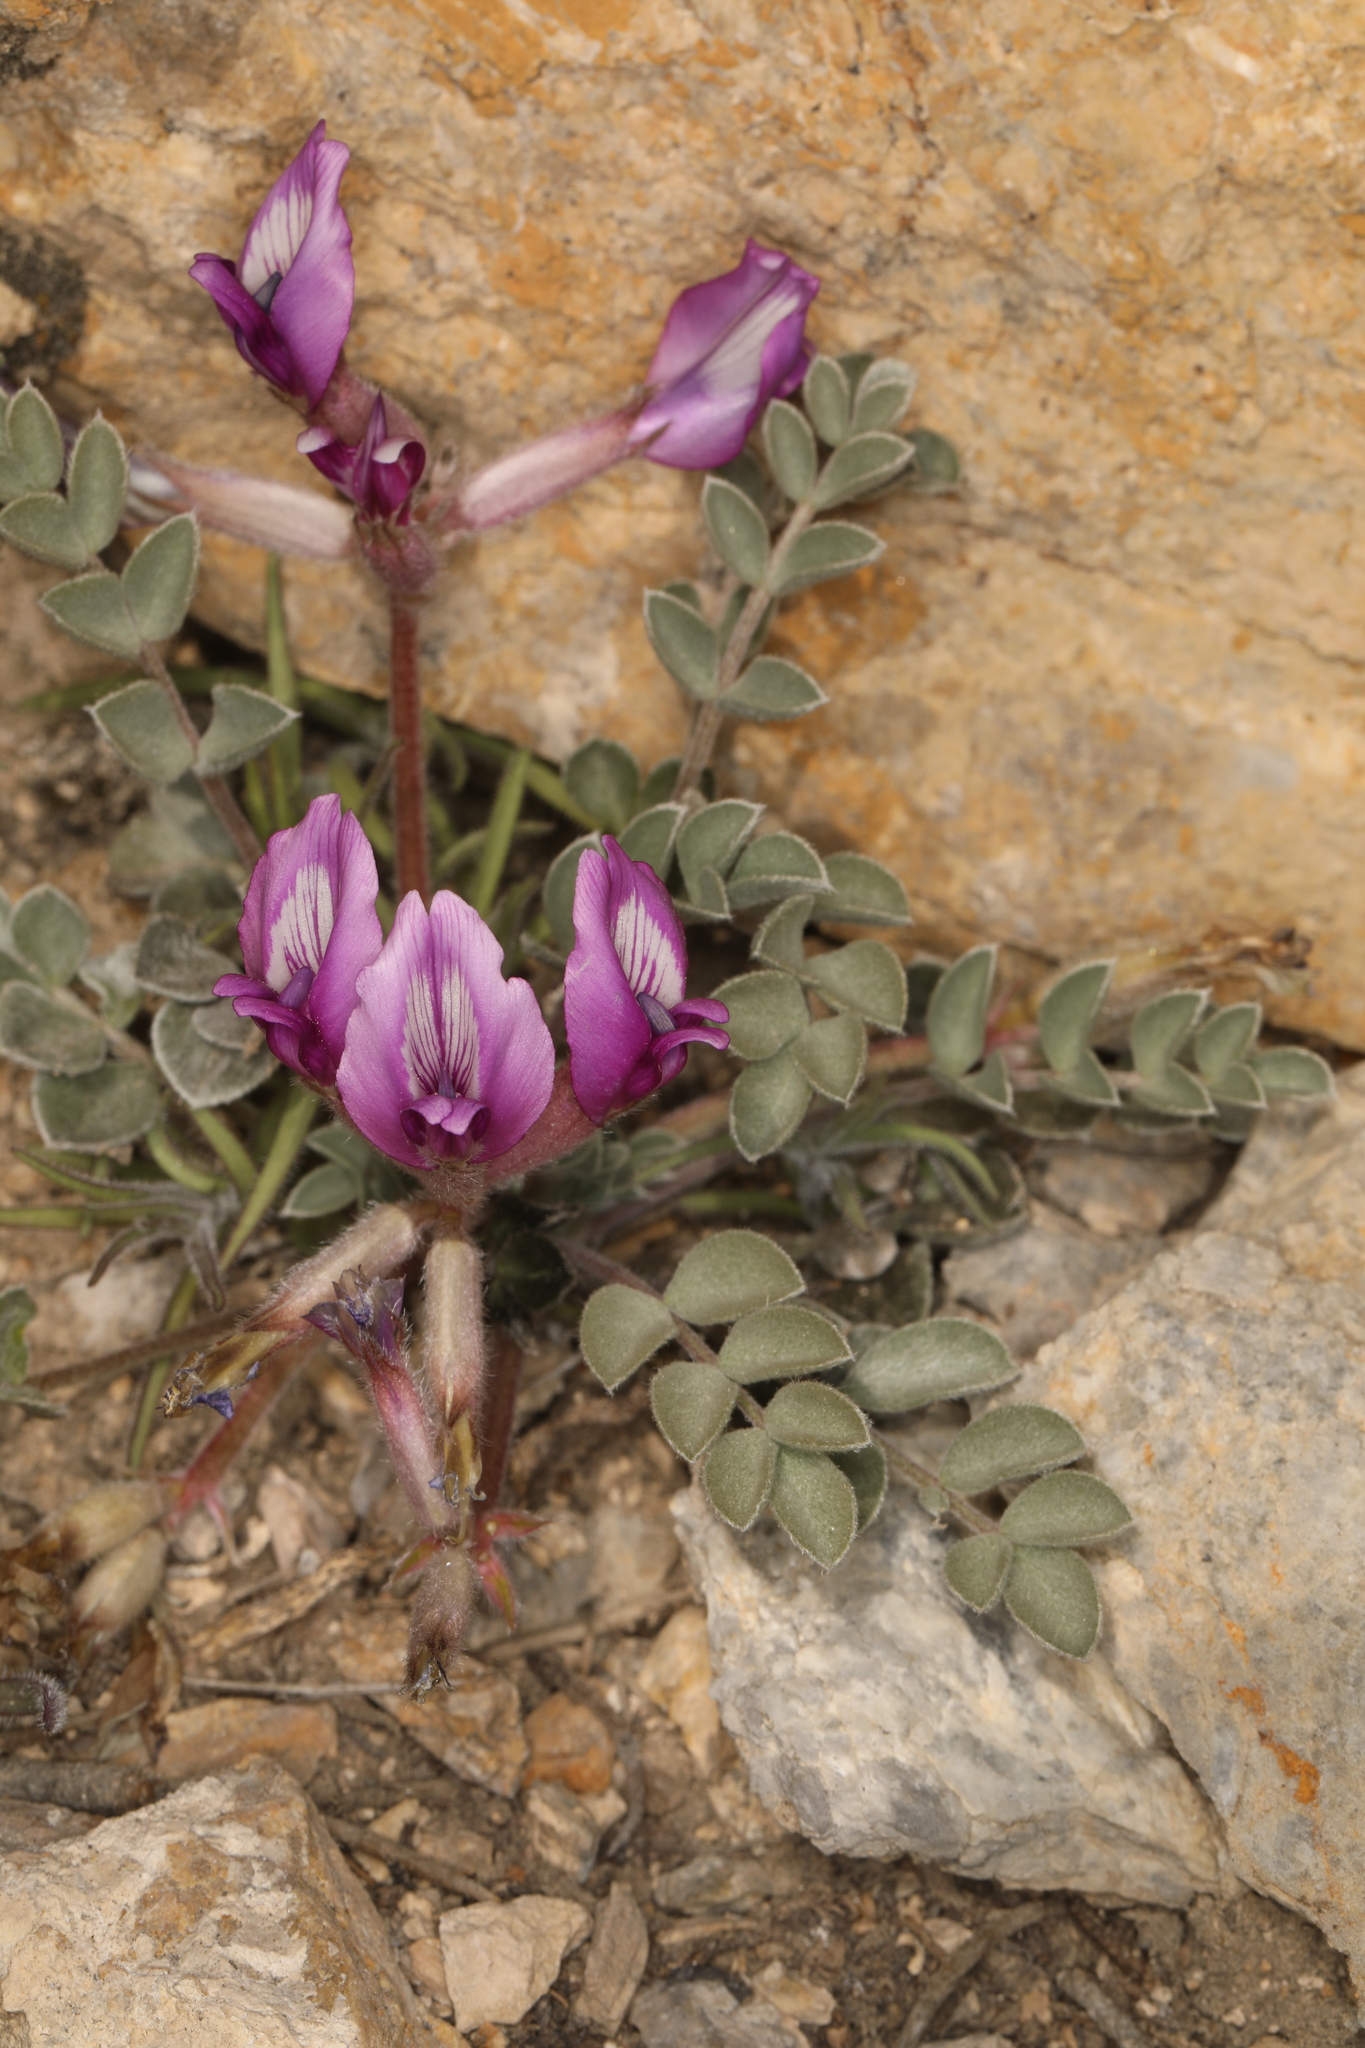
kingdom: Plantae
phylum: Tracheophyta
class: Magnoliopsida
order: Fabales
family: Fabaceae
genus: Astragalus
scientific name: Astragalus newberryi
